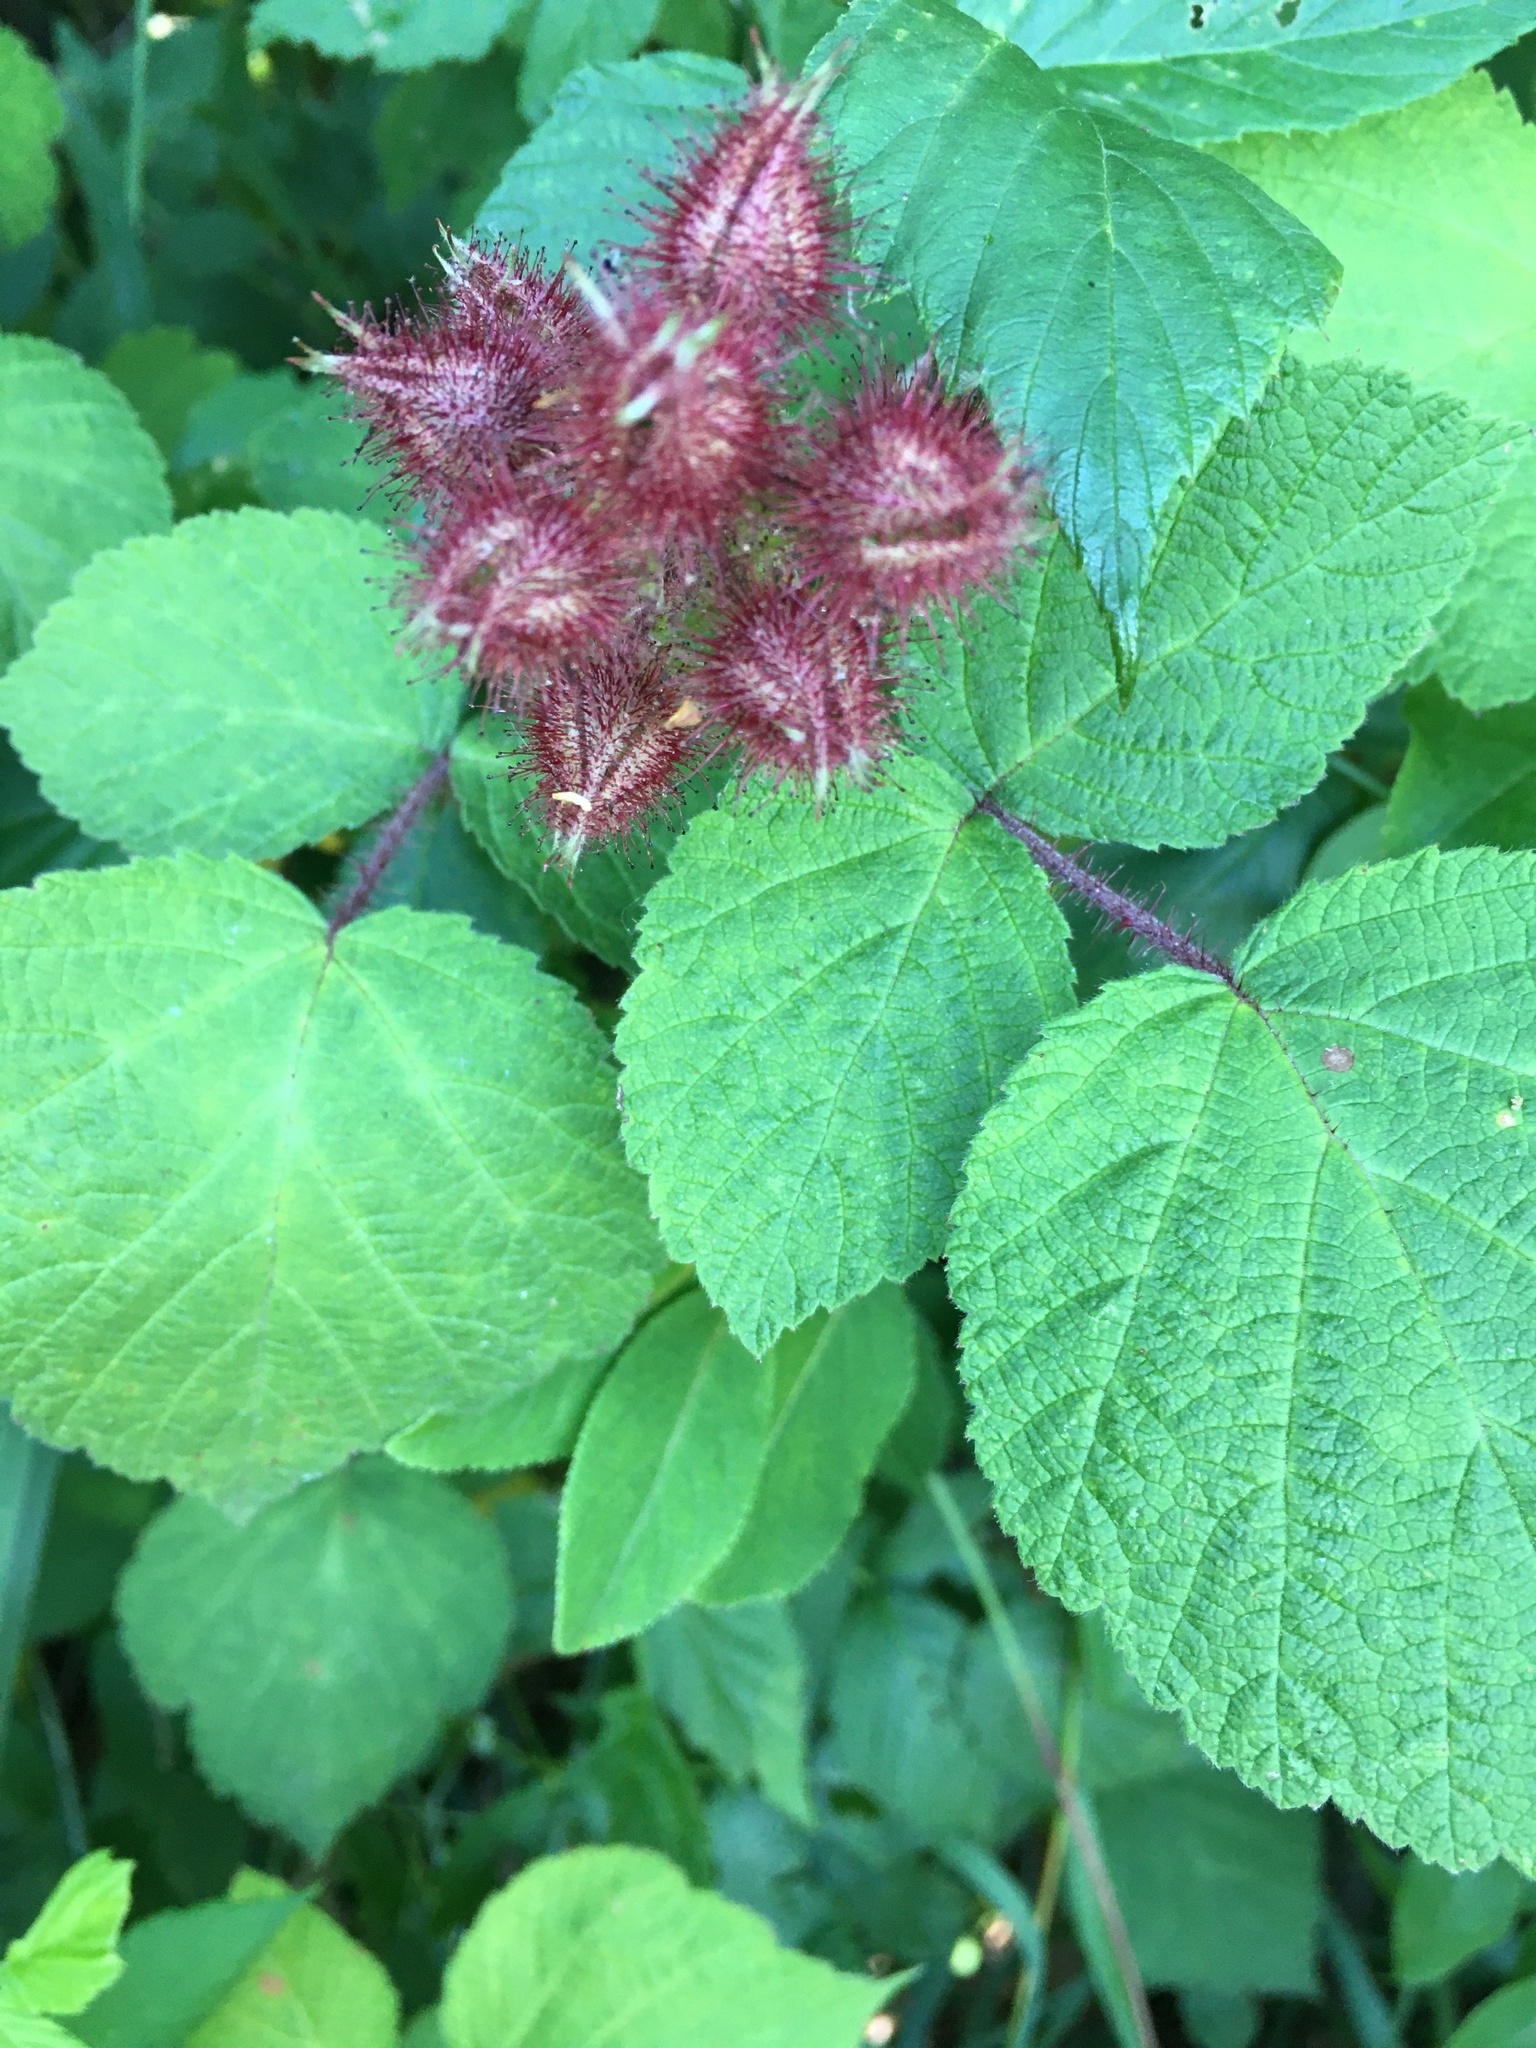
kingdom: Plantae
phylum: Tracheophyta
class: Magnoliopsida
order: Rosales
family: Rosaceae
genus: Rubus
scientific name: Rubus phoenicolasius
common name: Japanese wineberry
